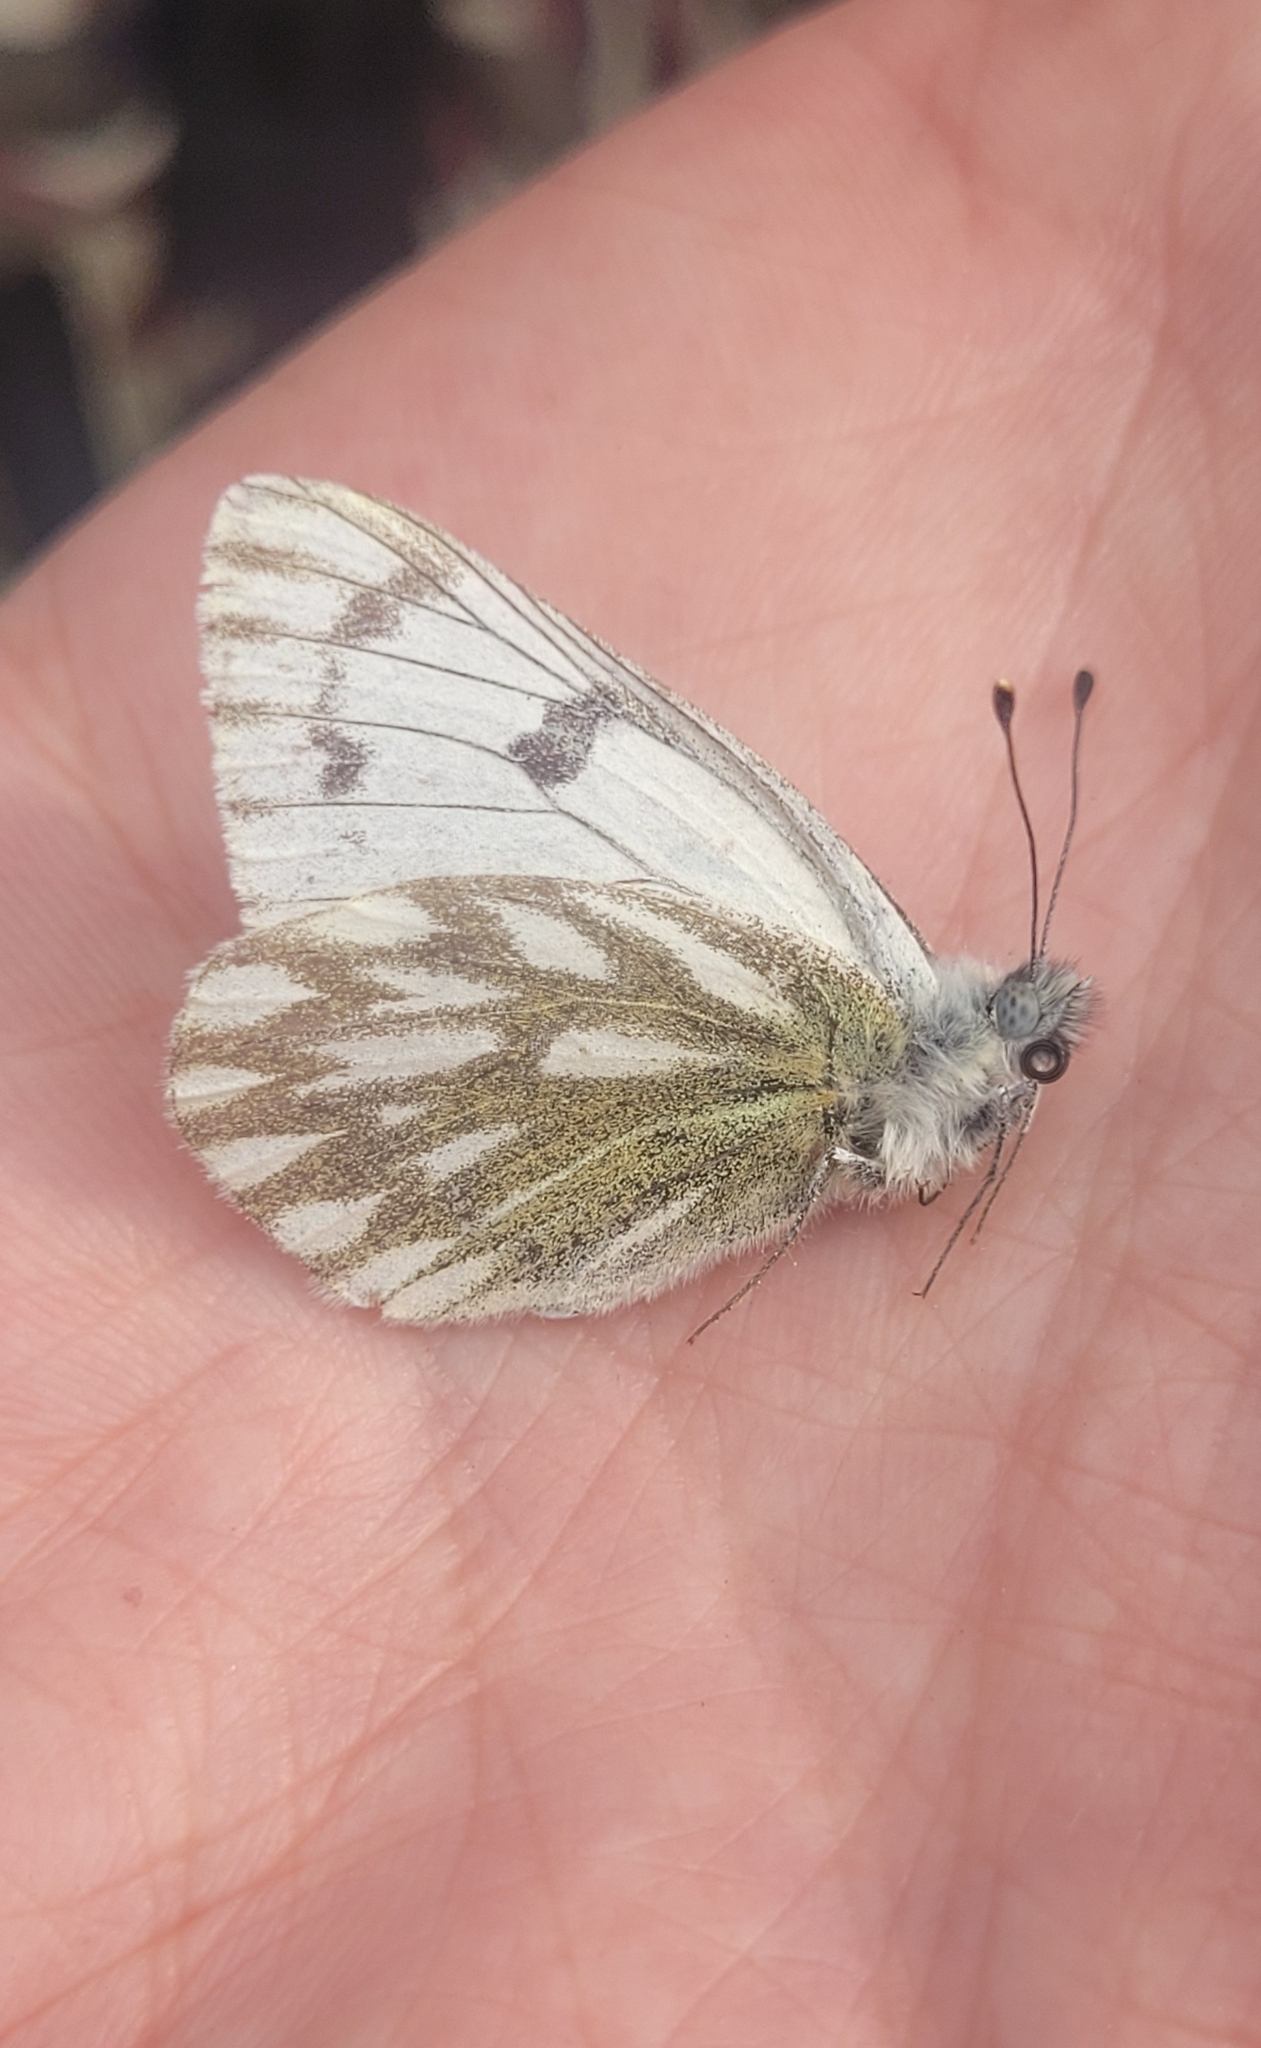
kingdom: Animalia
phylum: Arthropoda
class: Insecta
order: Lepidoptera
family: Pieridae
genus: Pontia
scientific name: Pontia callidice
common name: Peak white
